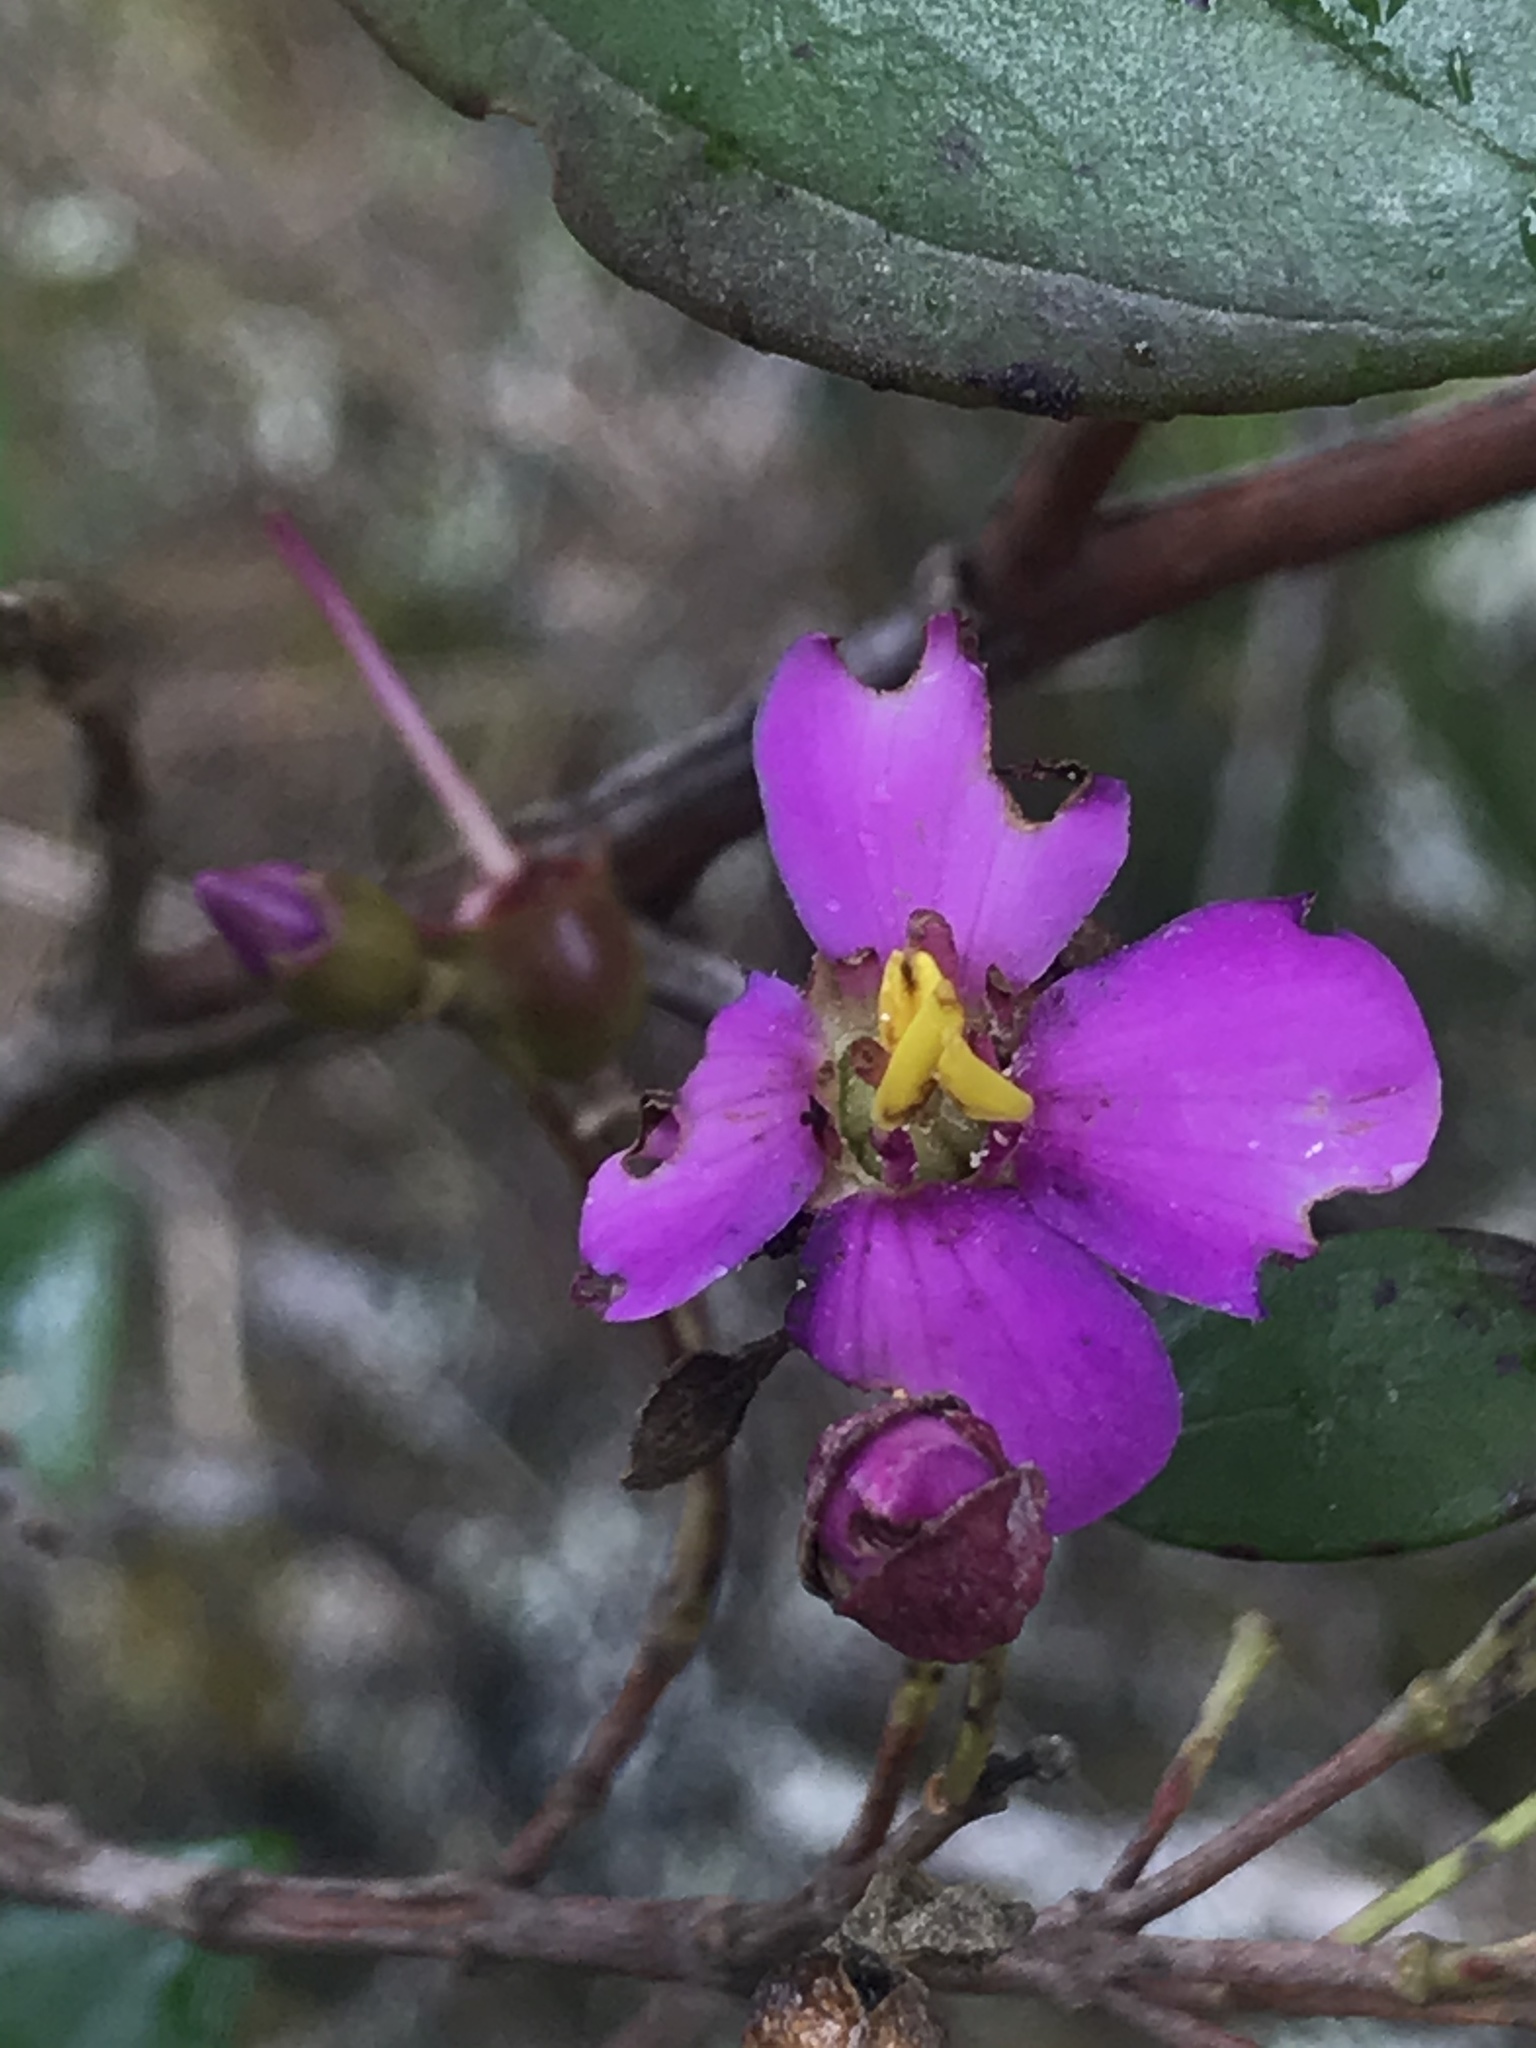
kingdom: Plantae
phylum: Tracheophyta
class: Magnoliopsida
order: Myrtales
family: Melastomataceae
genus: Bucquetia
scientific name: Bucquetia glutinosa
